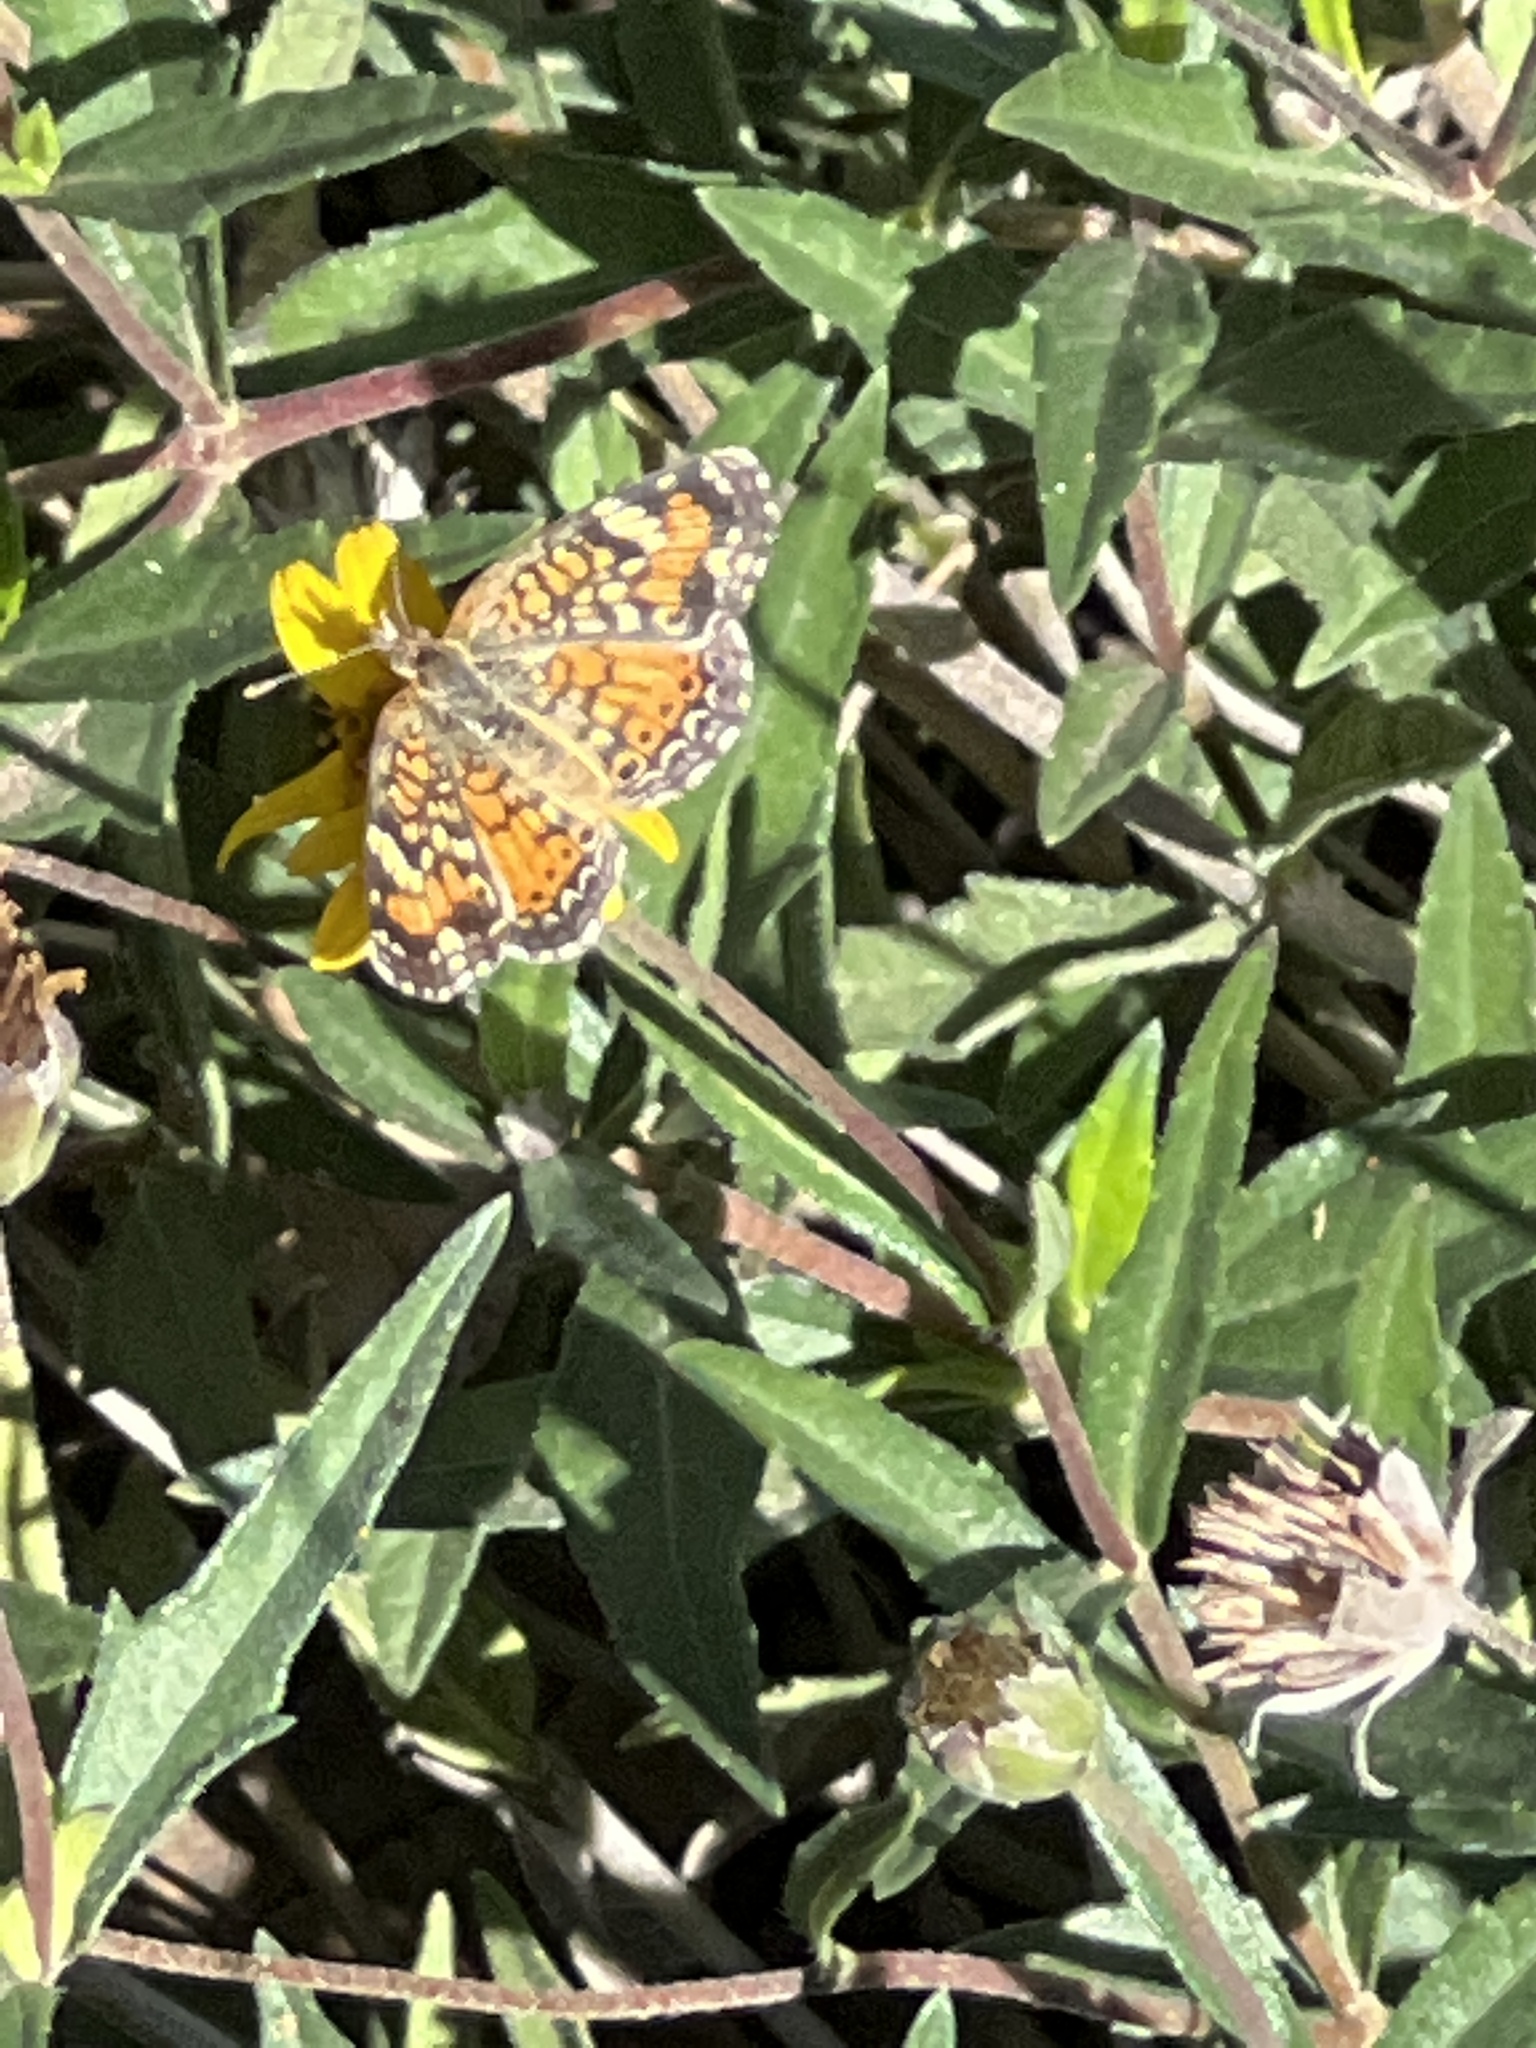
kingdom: Animalia
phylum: Arthropoda
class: Insecta
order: Lepidoptera
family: Nymphalidae
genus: Phyciodes
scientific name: Phyciodes phaon
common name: Phaon crescent
